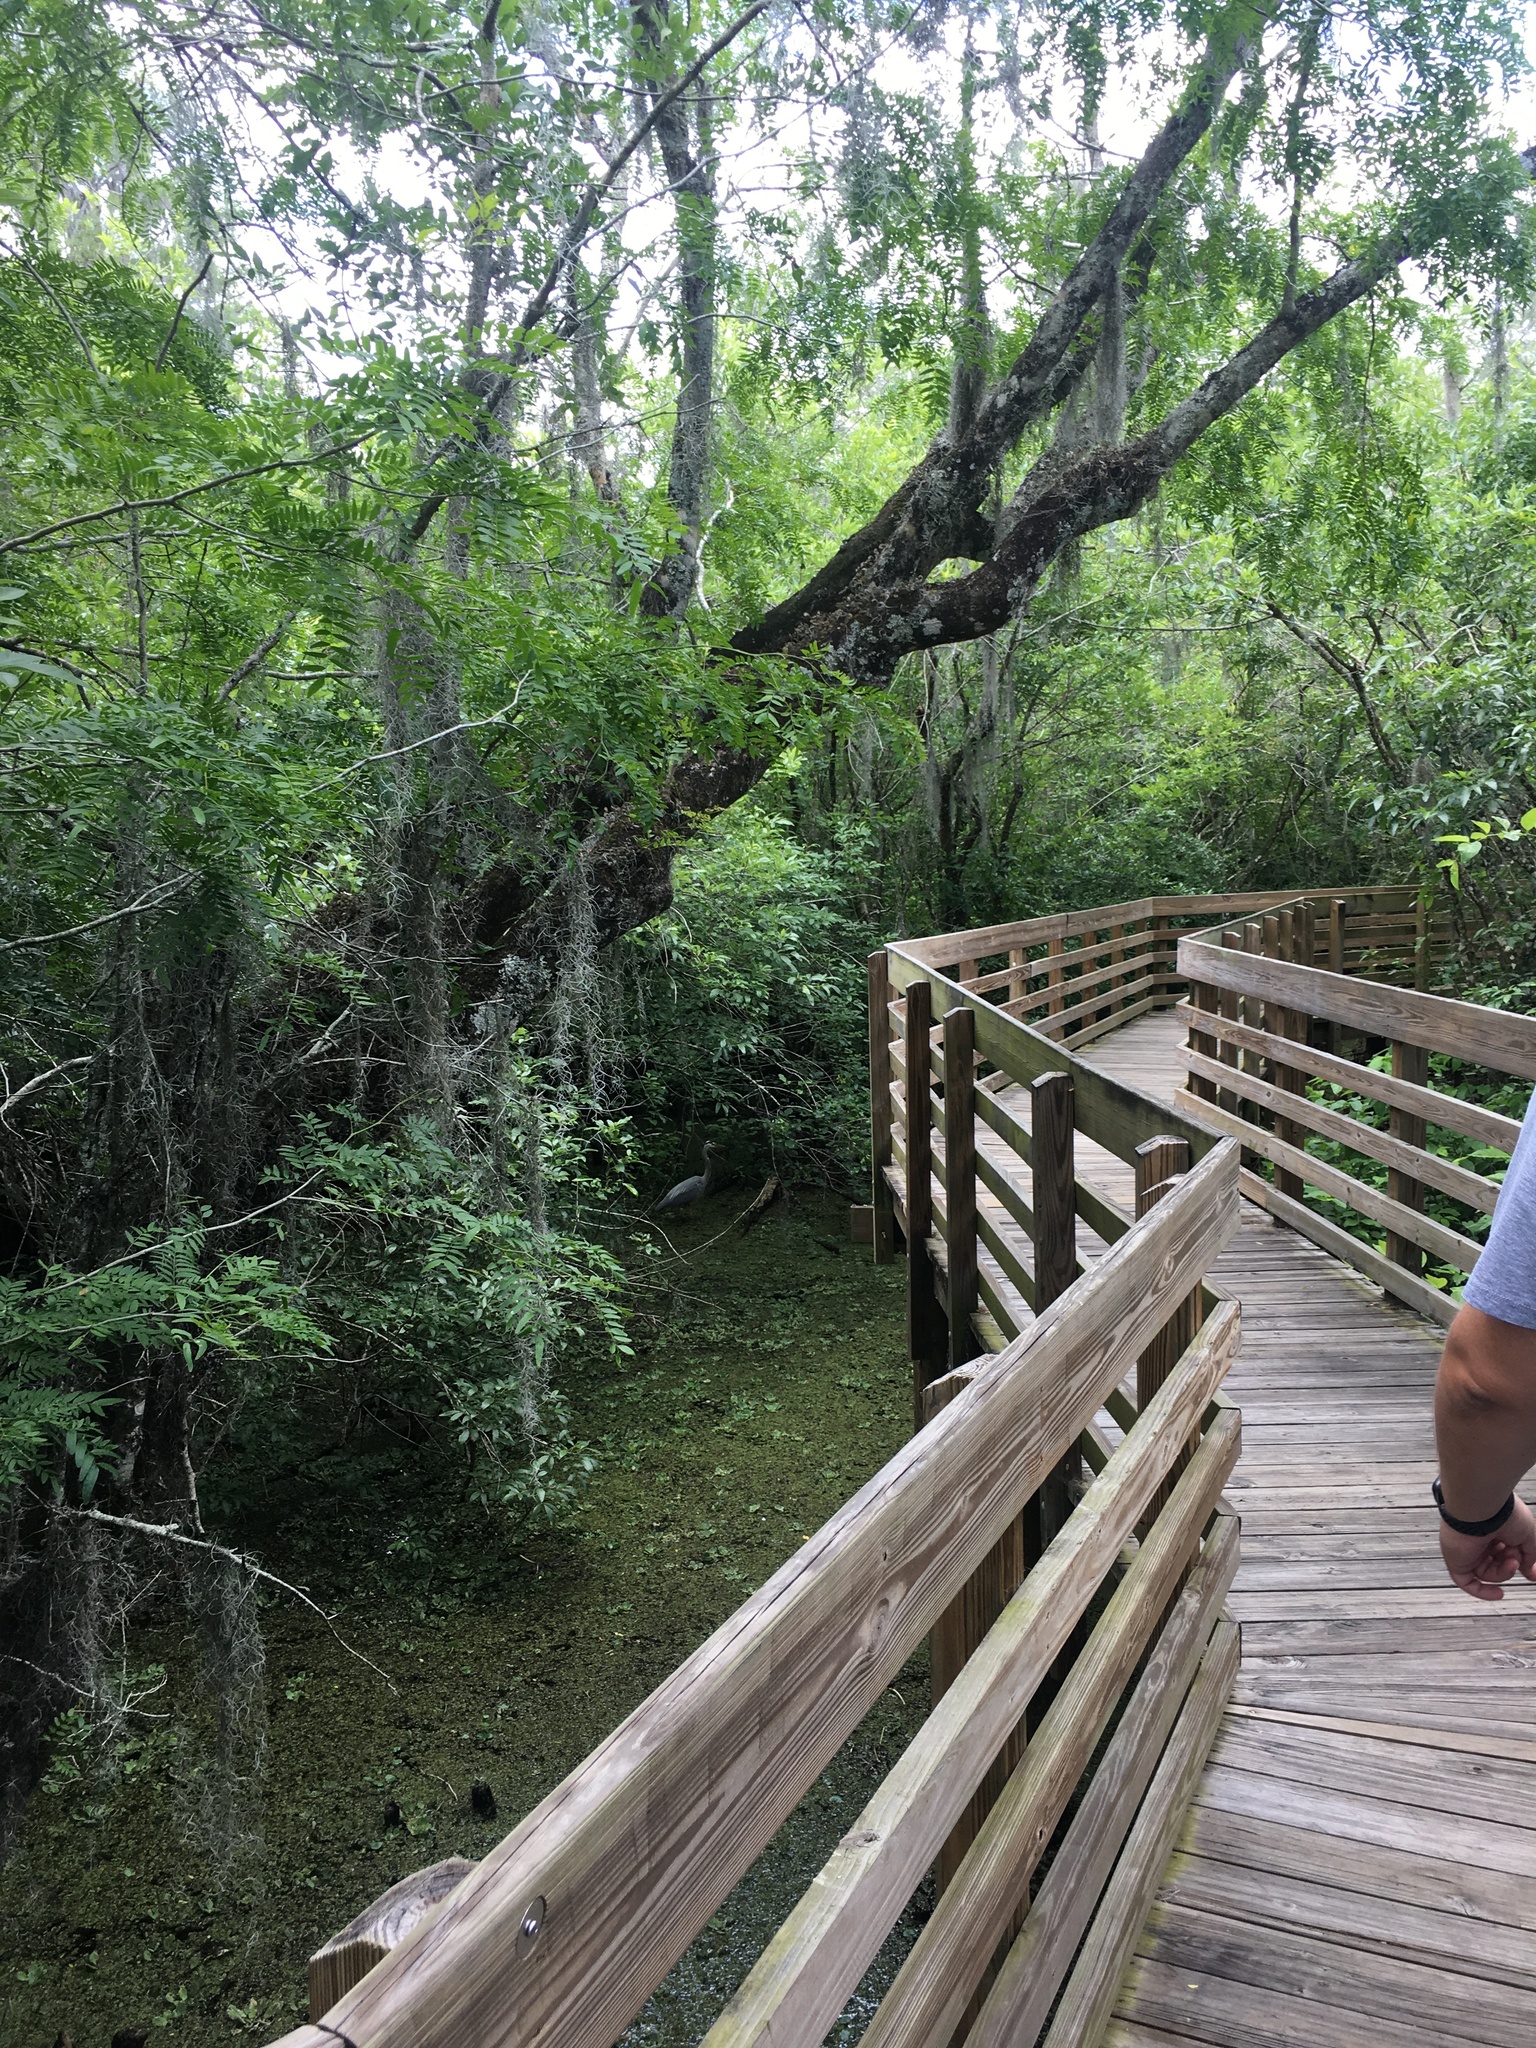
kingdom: Animalia
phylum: Chordata
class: Aves
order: Pelecaniformes
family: Ardeidae
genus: Ardea
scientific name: Ardea herodias
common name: Great blue heron
